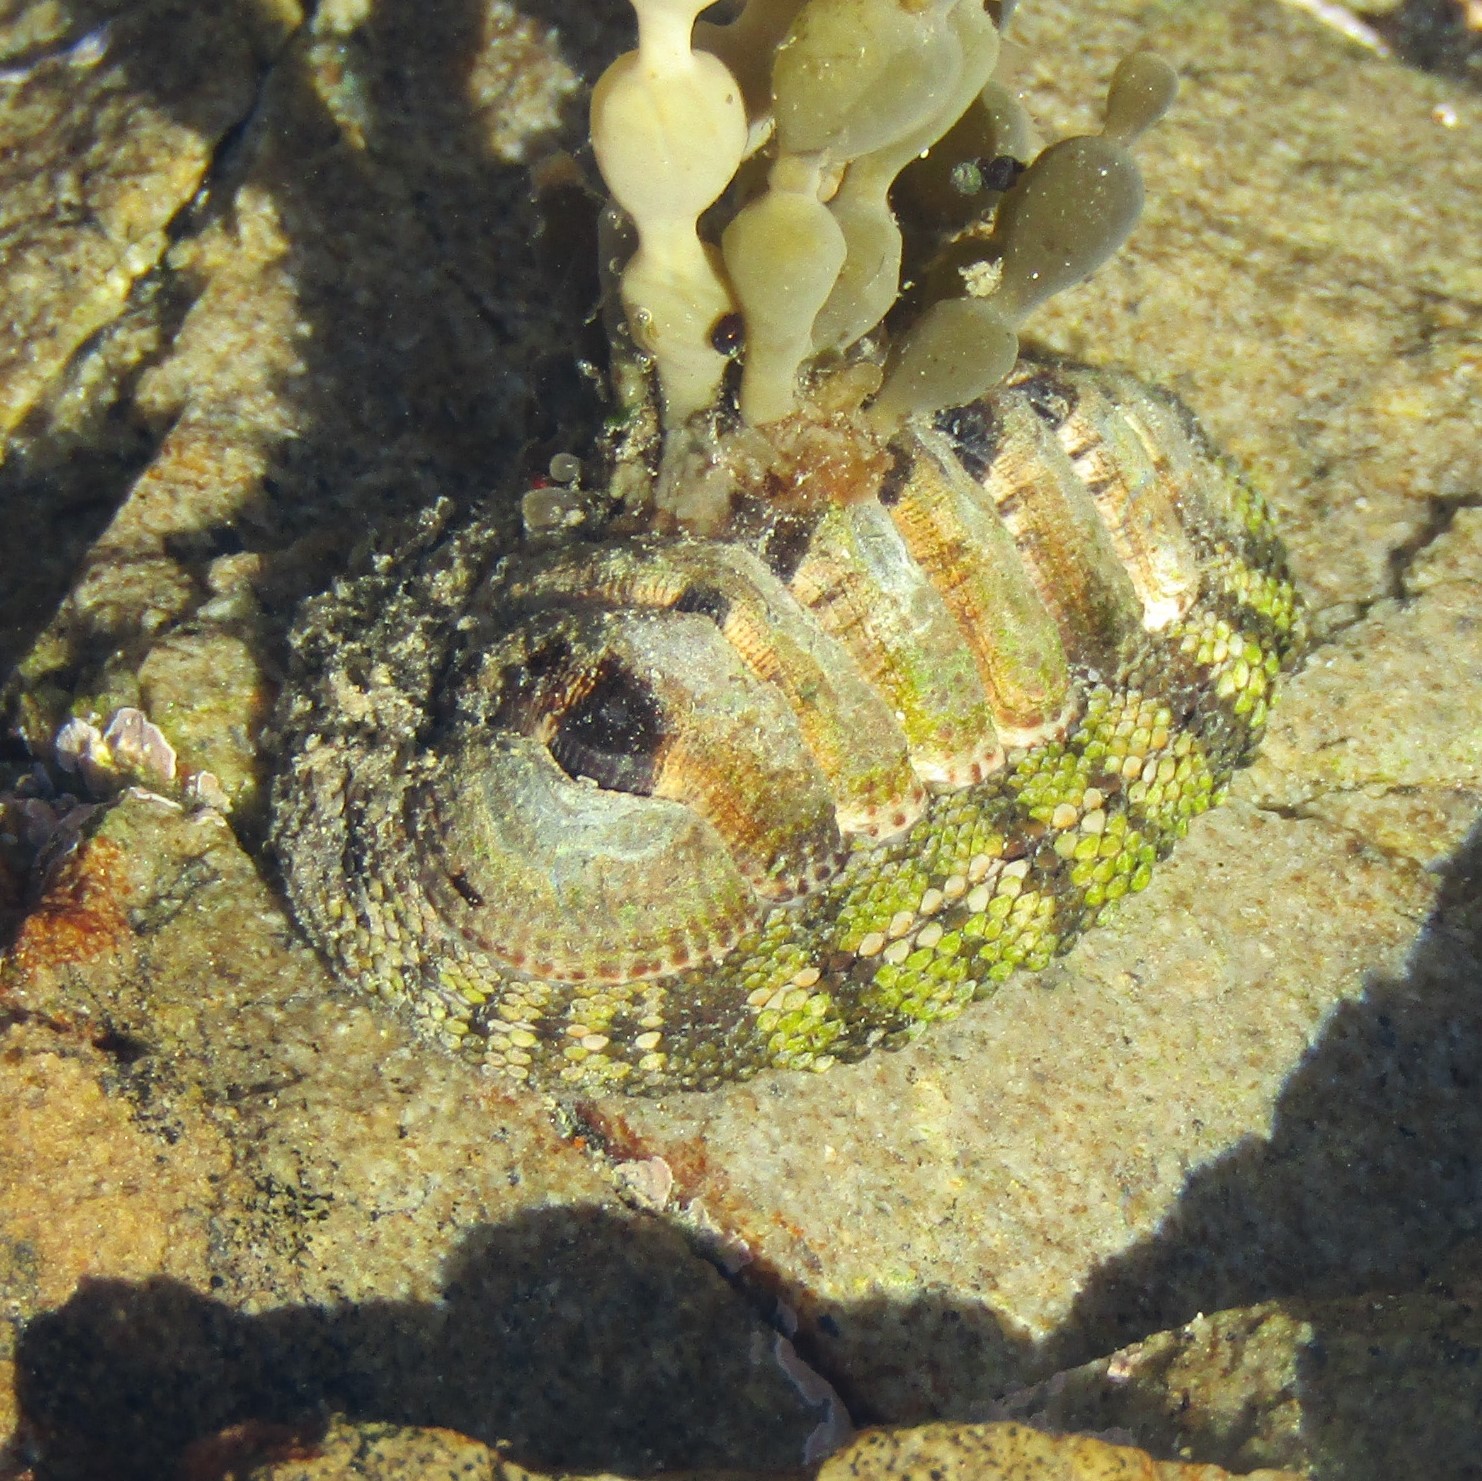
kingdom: Animalia
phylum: Mollusca
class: Polyplacophora
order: Chitonida
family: Chitonidae
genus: Sypharochiton
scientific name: Sypharochiton pelliserpentis
